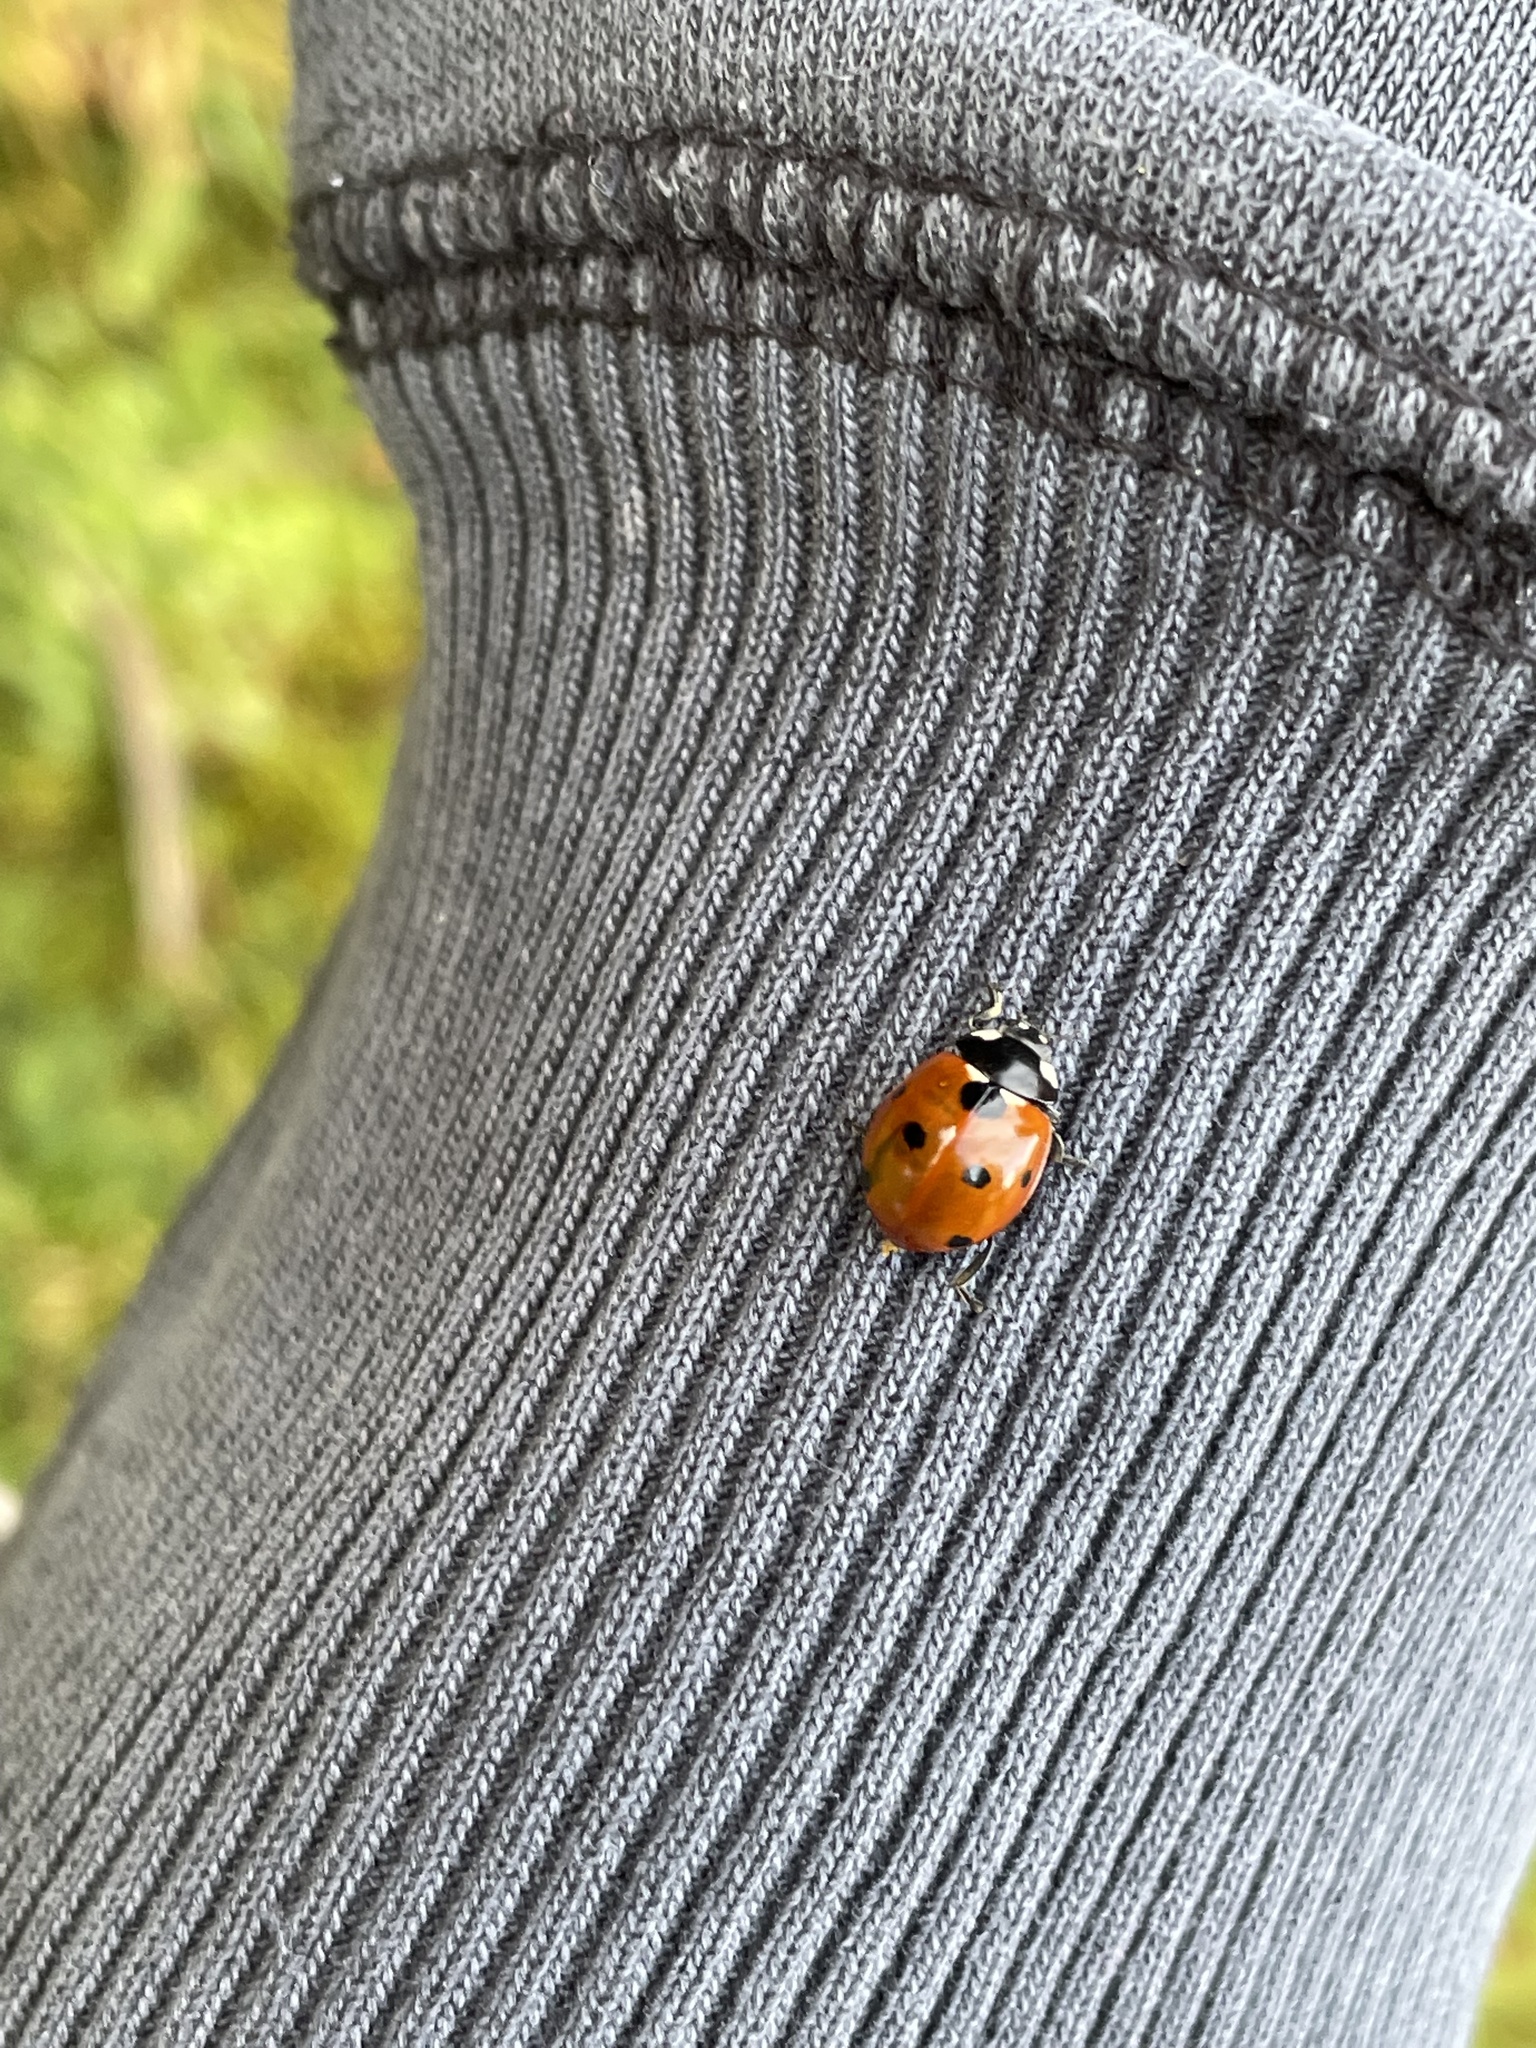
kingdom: Animalia
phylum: Arthropoda
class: Insecta
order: Coleoptera
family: Coccinellidae
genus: Coccinella
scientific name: Coccinella septempunctata
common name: Sevenspotted lady beetle
